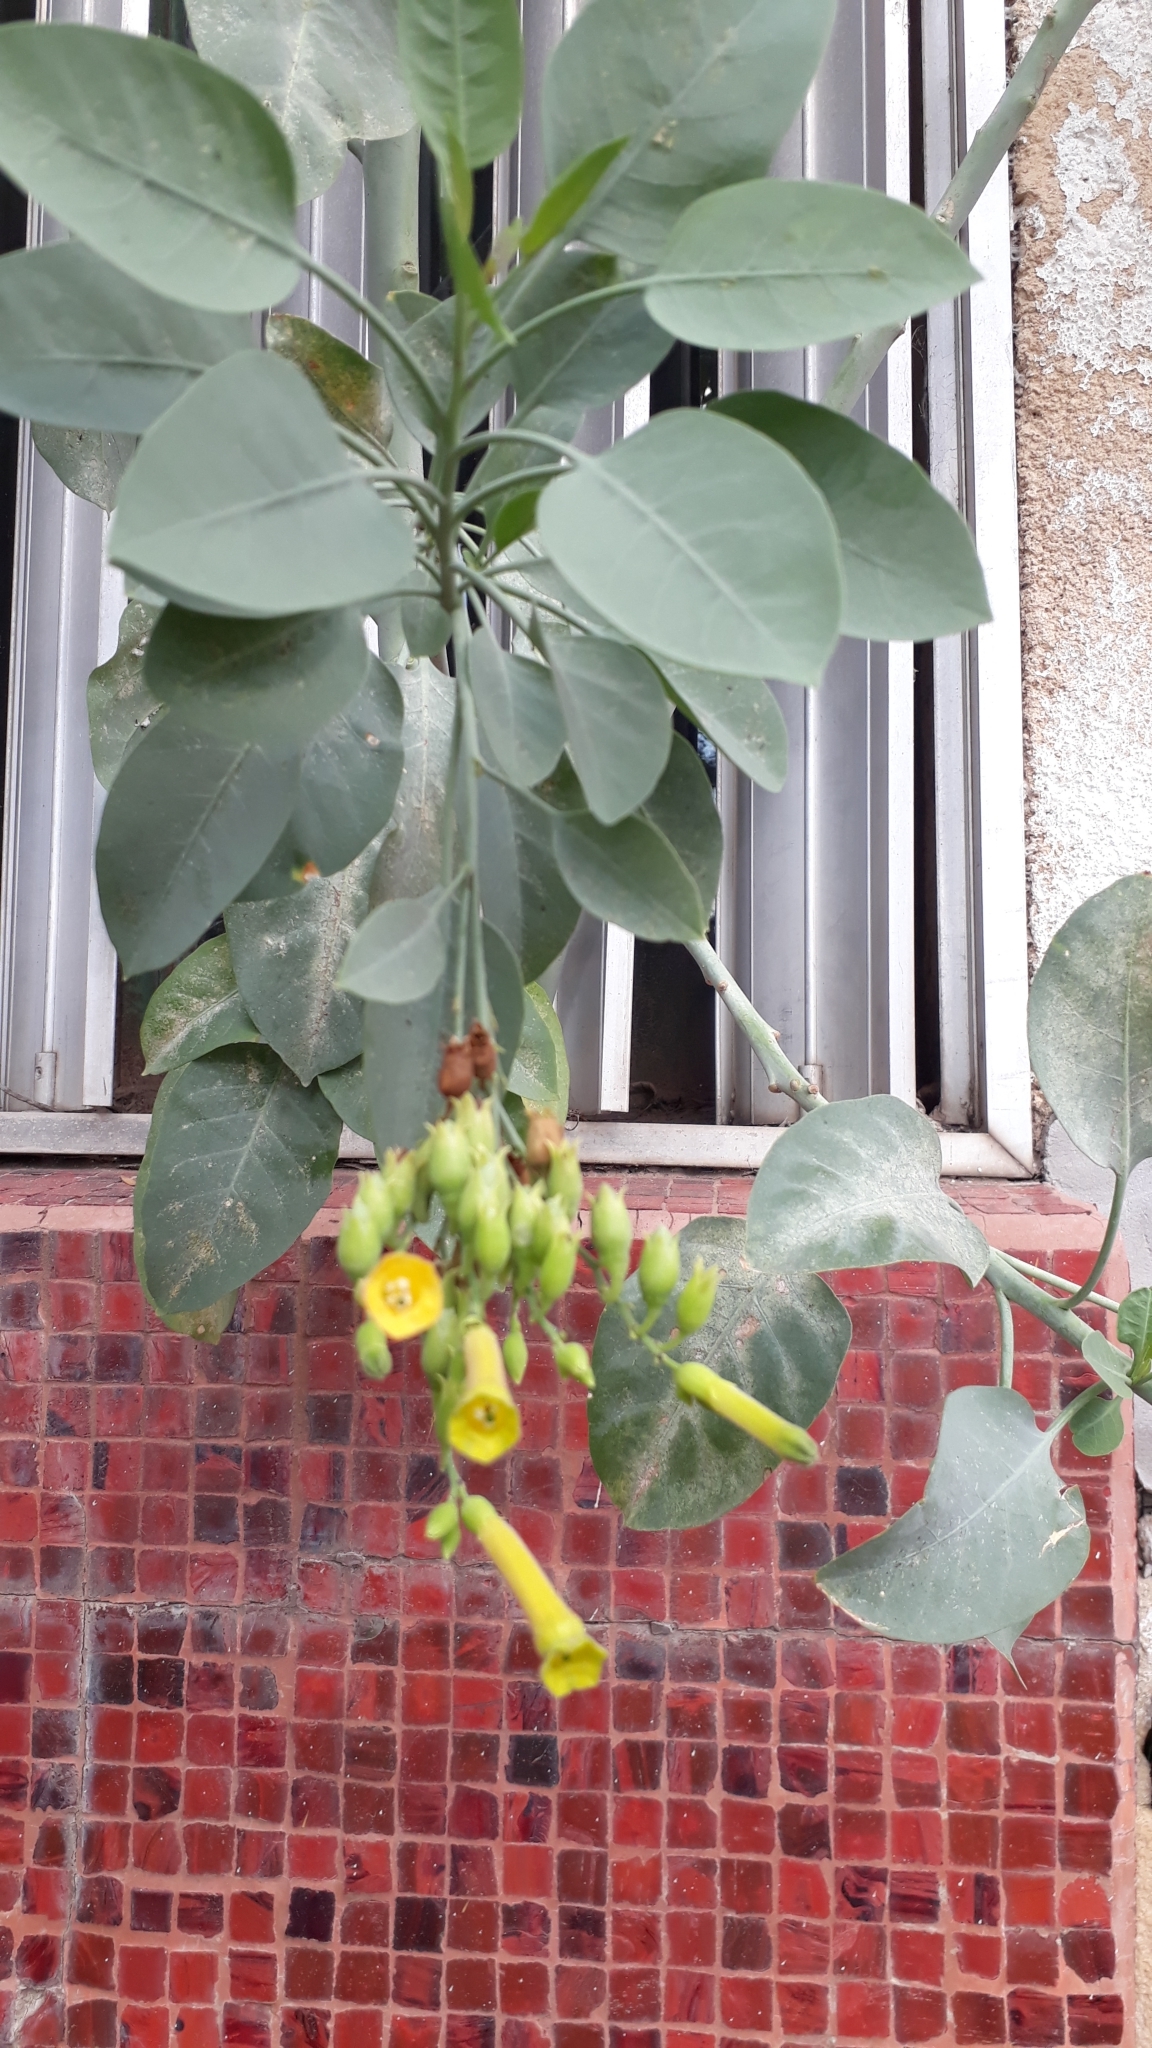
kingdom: Plantae
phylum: Tracheophyta
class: Magnoliopsida
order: Solanales
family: Solanaceae
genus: Nicotiana
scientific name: Nicotiana glauca
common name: Tree tobacco
